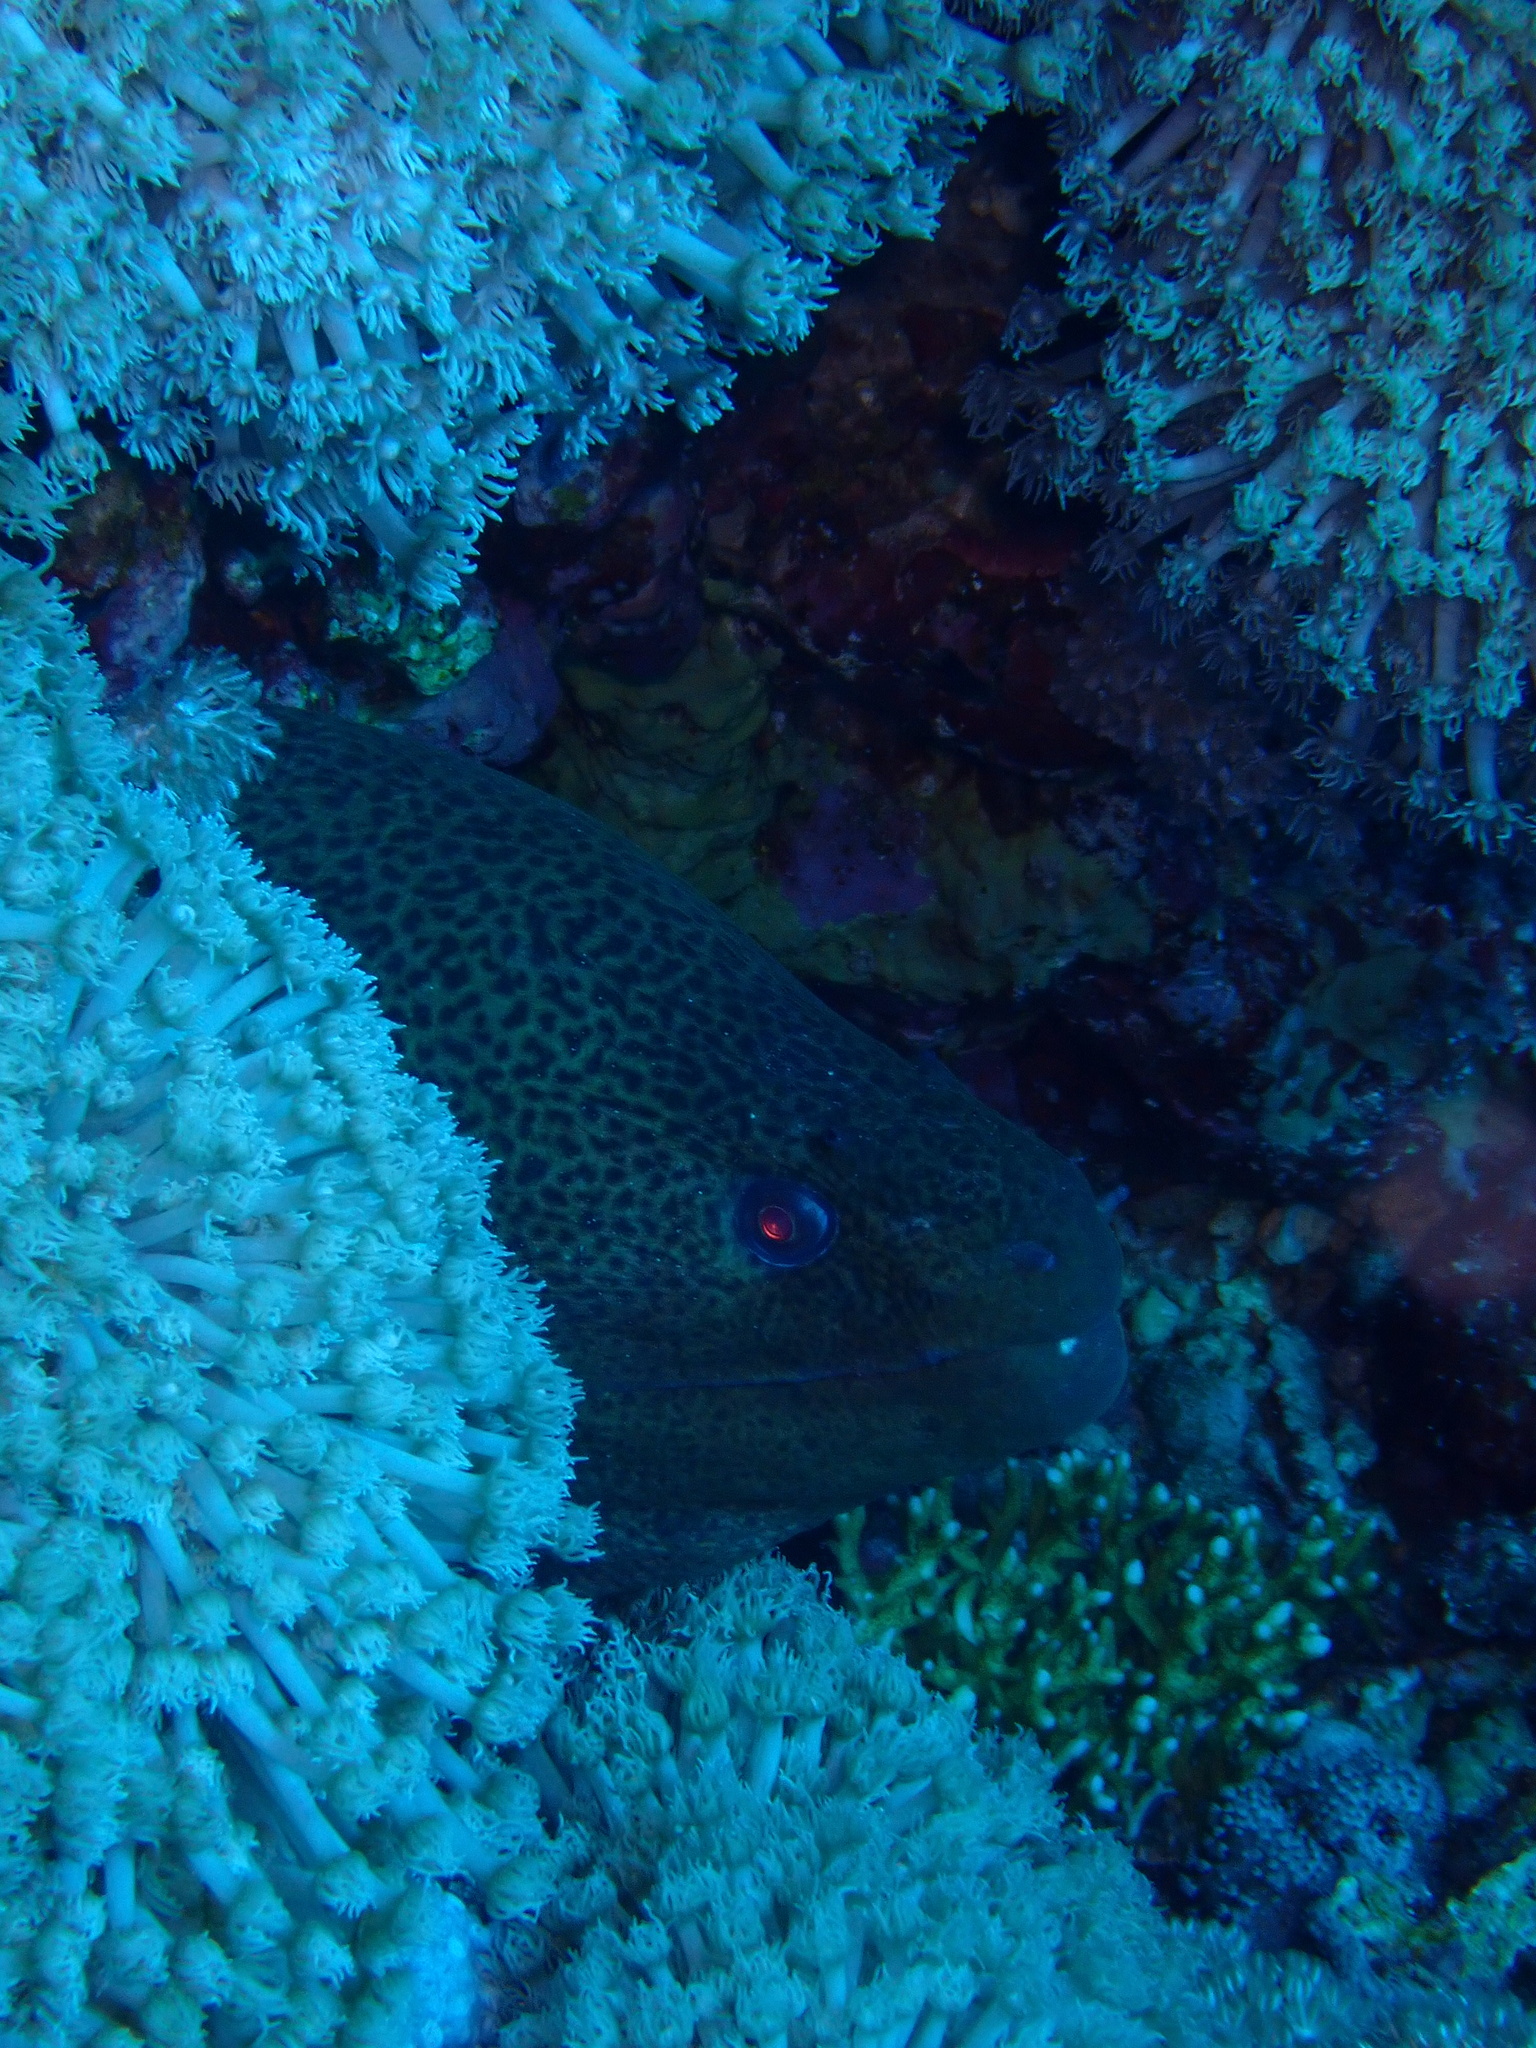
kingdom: Animalia
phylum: Chordata
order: Anguilliformes
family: Muraenidae
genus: Gymnothorax
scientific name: Gymnothorax javanicus
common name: Giant moray
